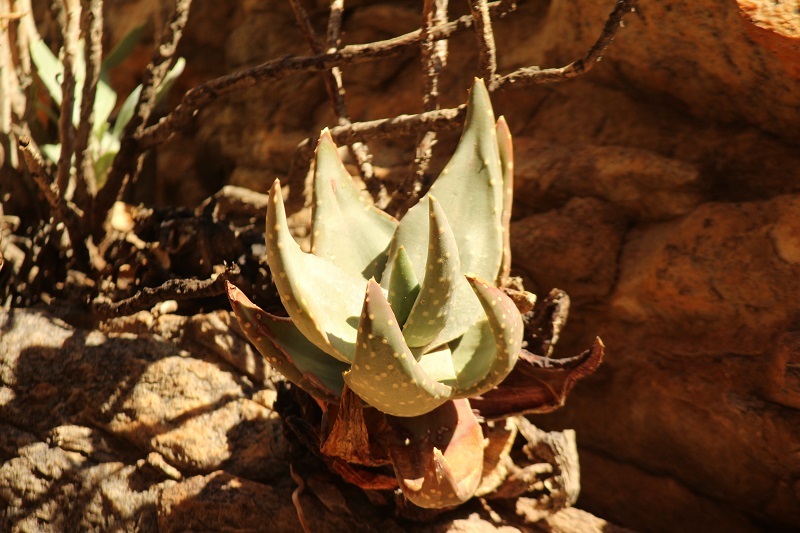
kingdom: Plantae
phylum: Tracheophyta
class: Liliopsida
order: Asparagales
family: Asphodelaceae
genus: Aloe
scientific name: Aloe comptonii
